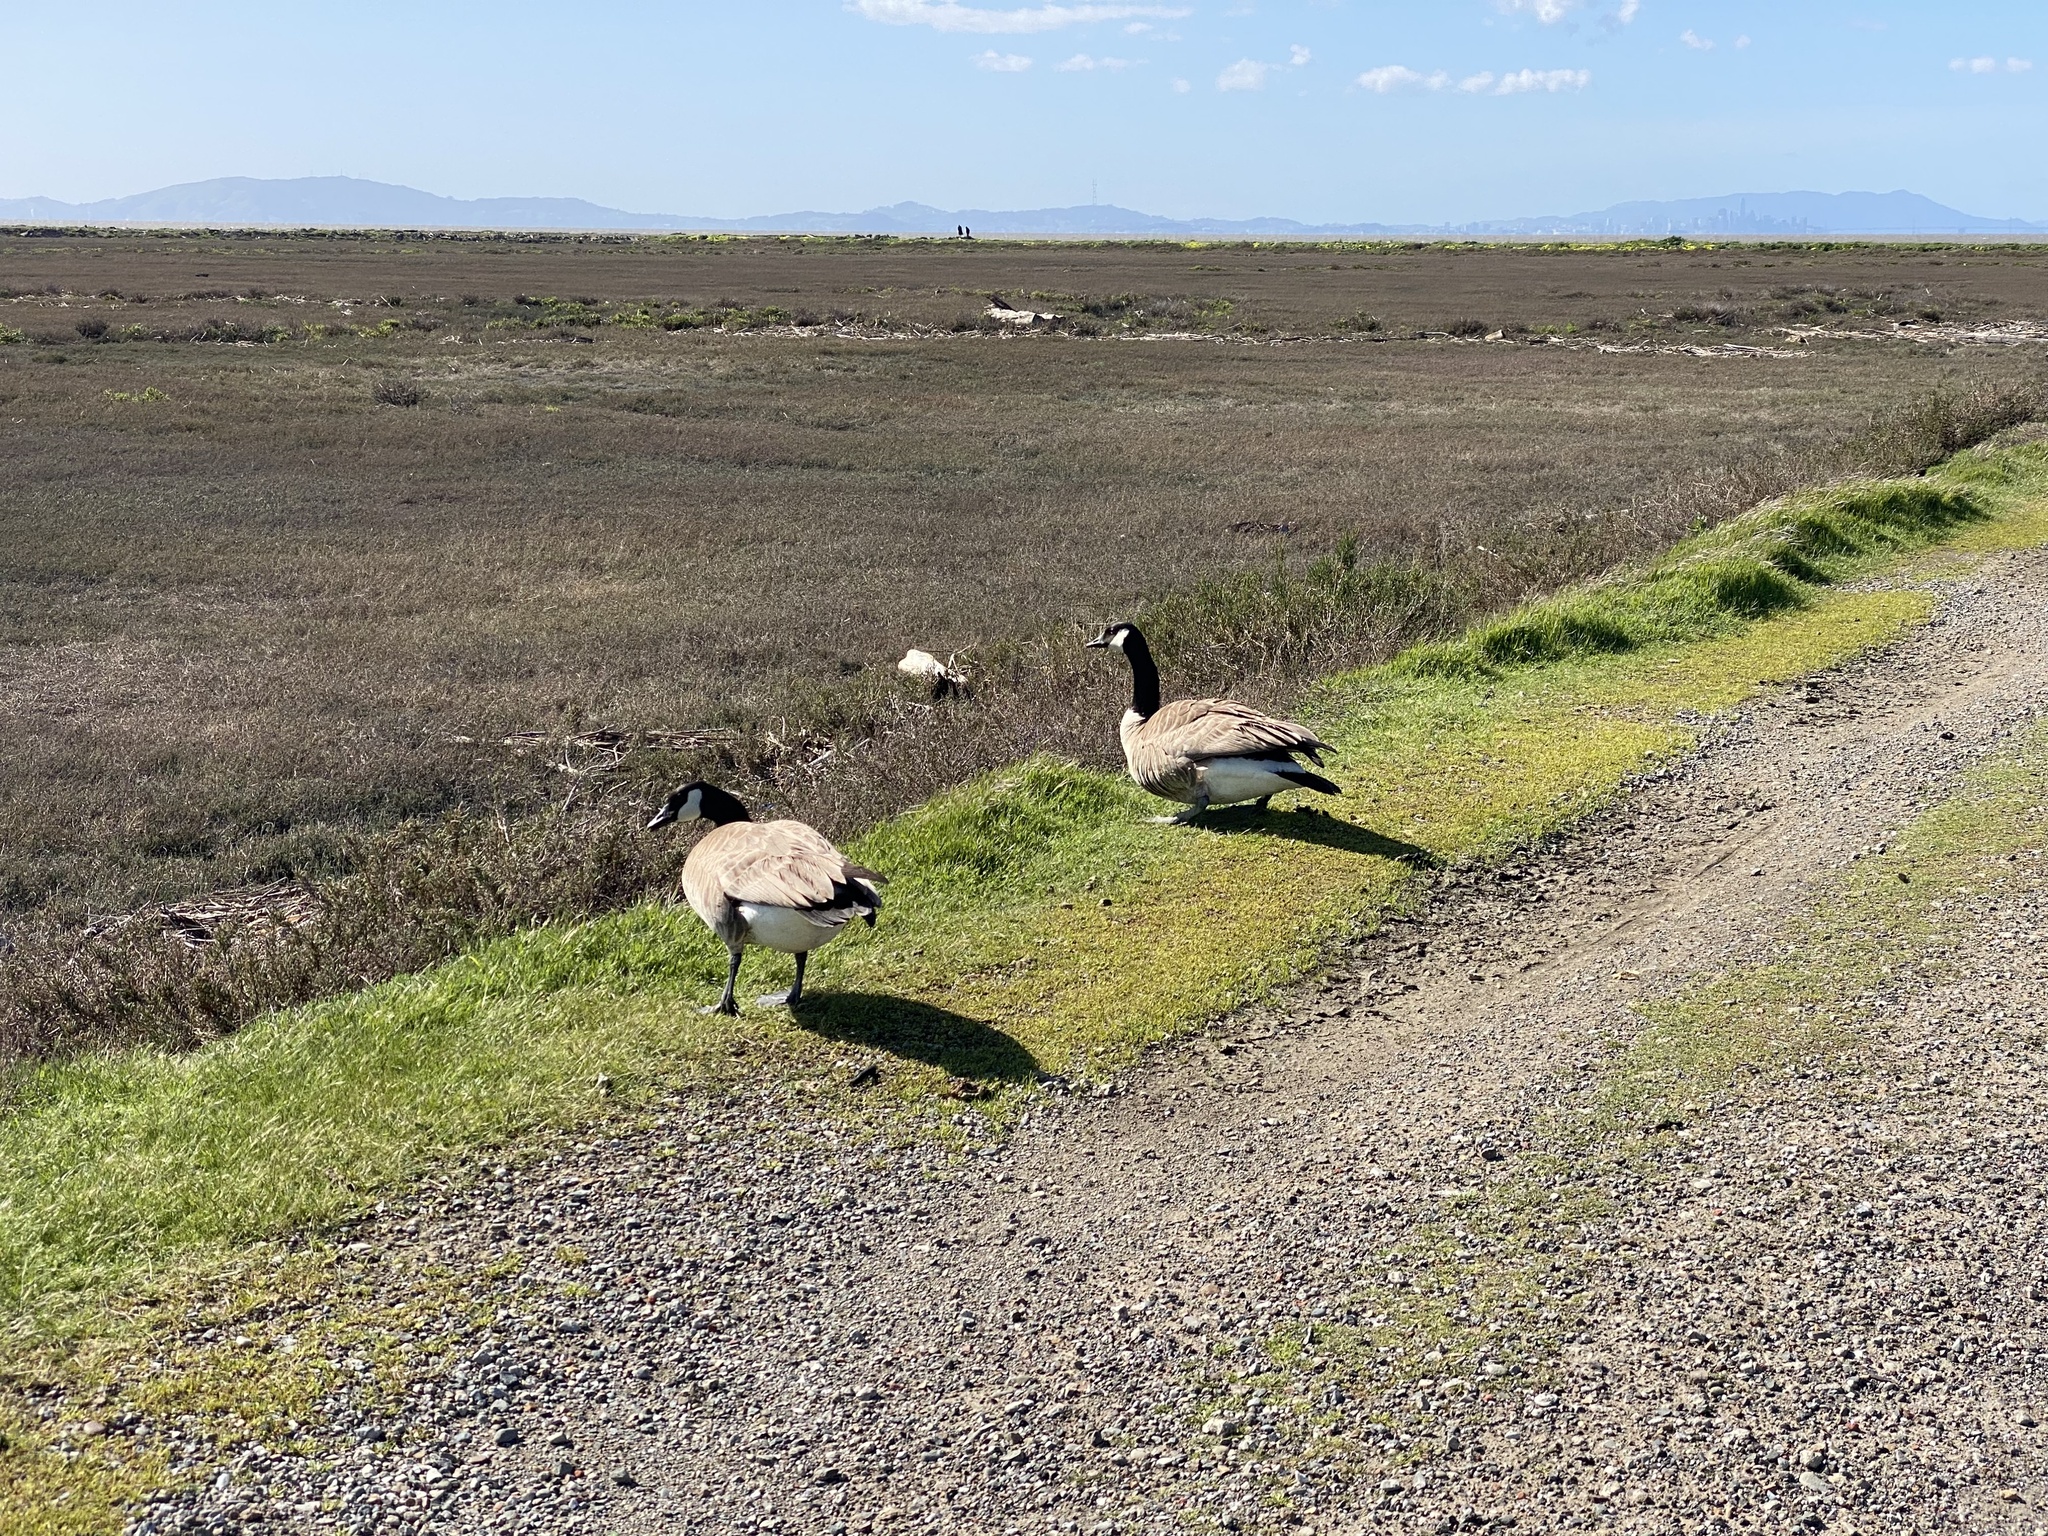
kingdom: Animalia
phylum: Chordata
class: Aves
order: Anseriformes
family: Anatidae
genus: Branta
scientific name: Branta canadensis
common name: Canada goose
